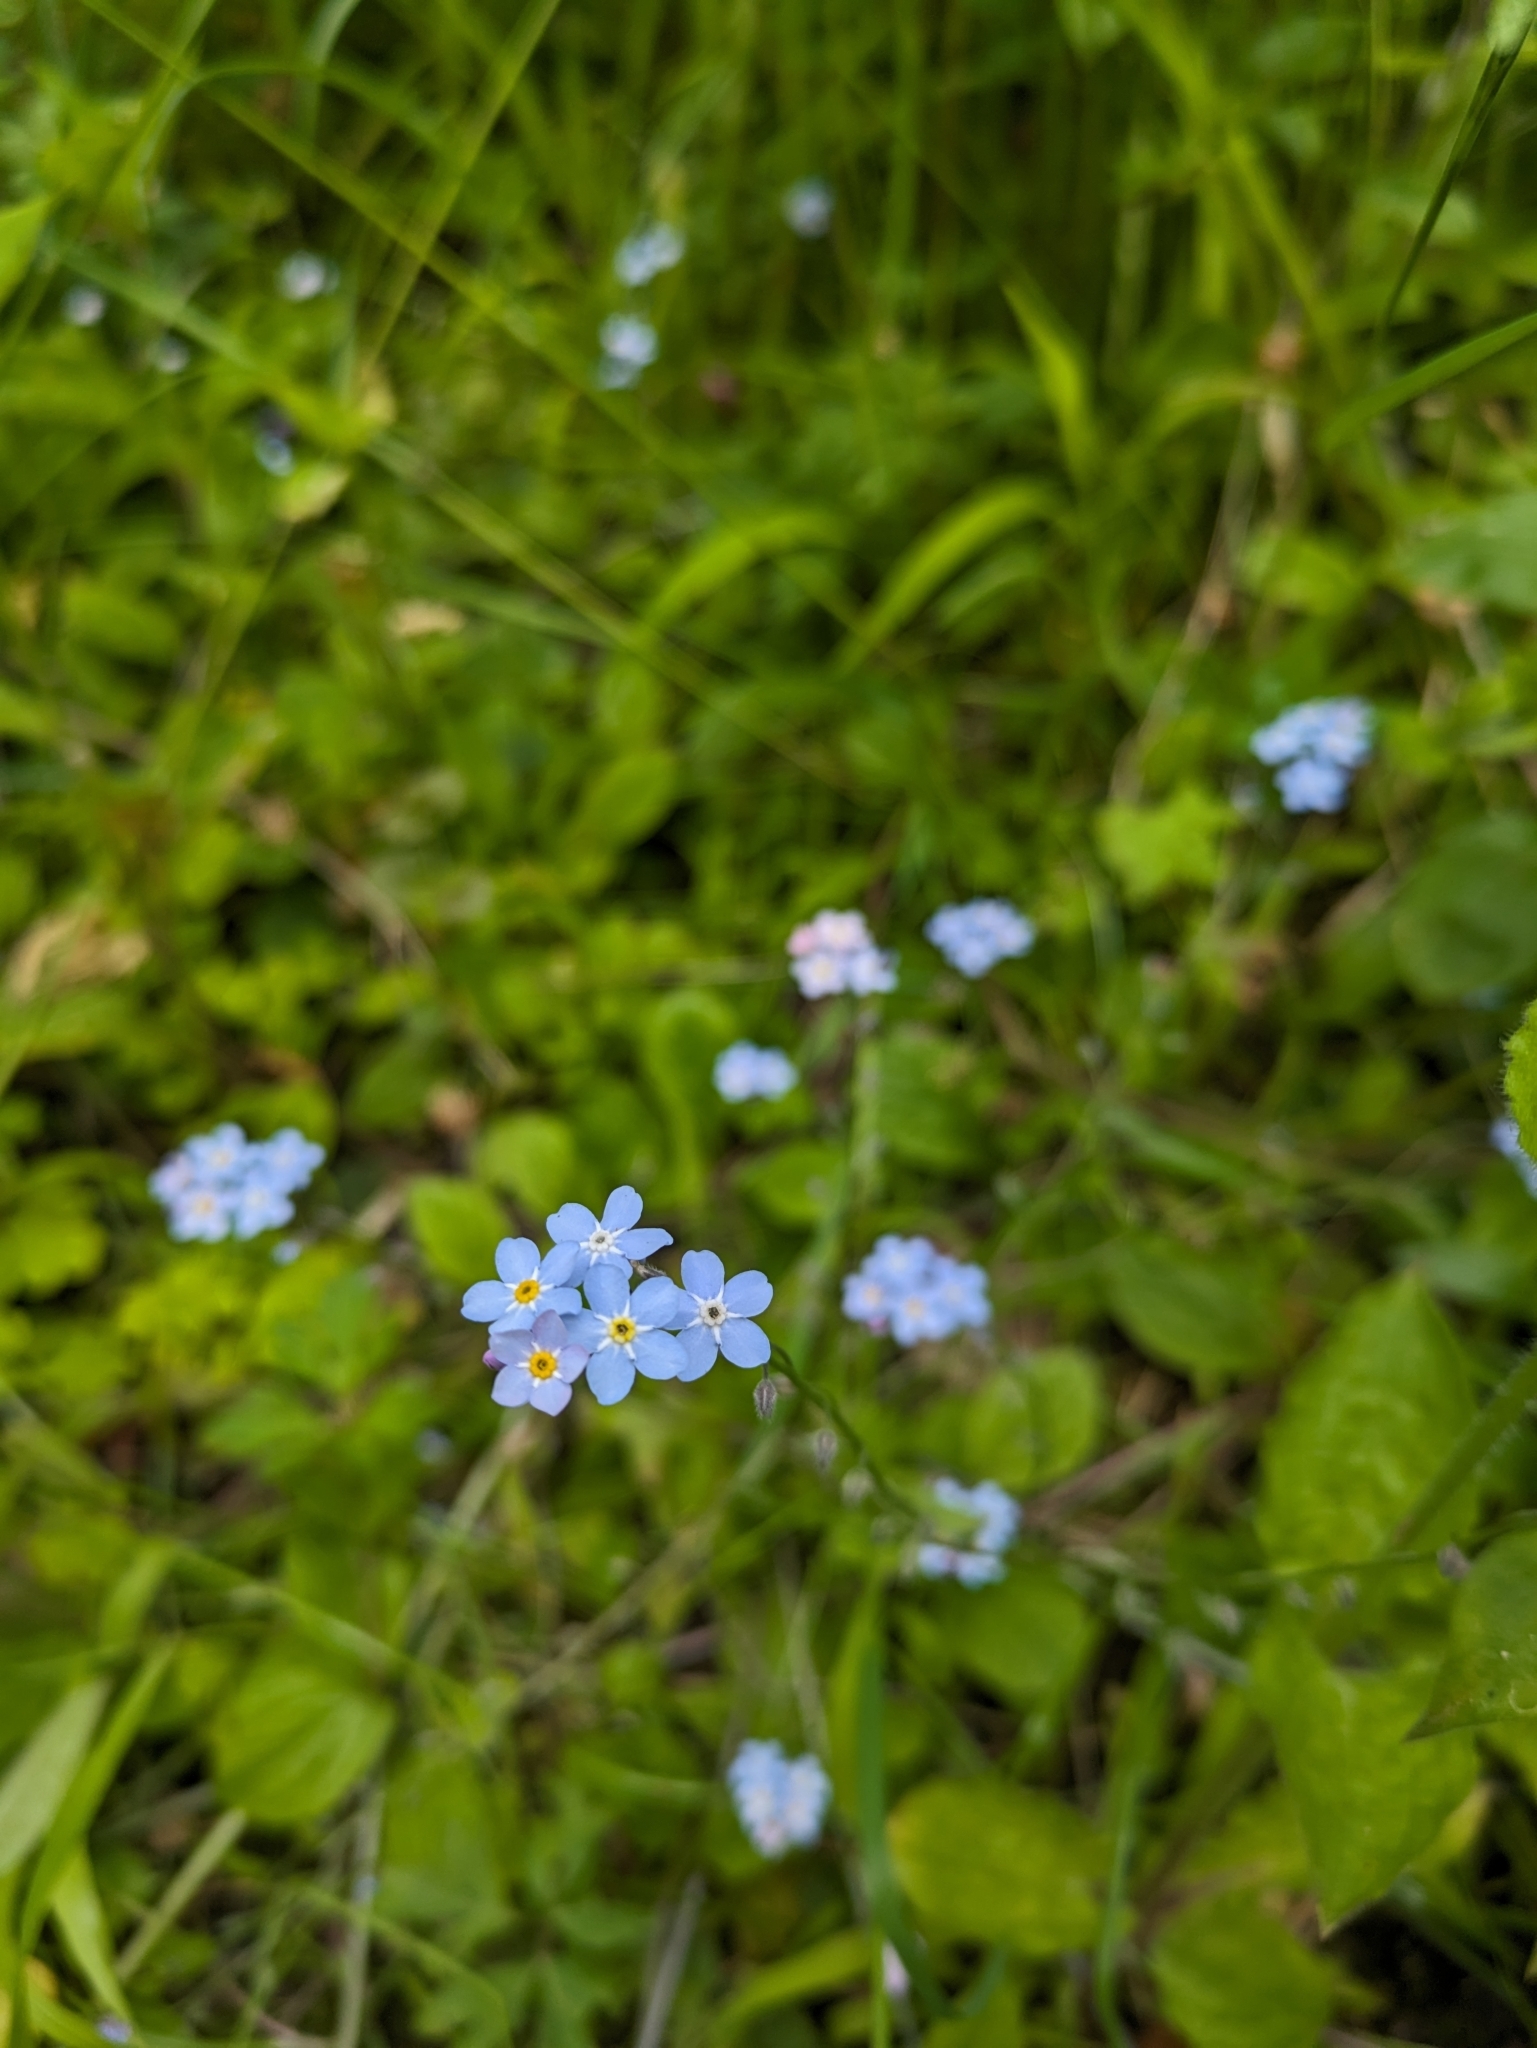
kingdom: Plantae
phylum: Tracheophyta
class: Magnoliopsida
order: Boraginales
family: Boraginaceae
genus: Myosotis
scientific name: Myosotis sylvatica
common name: Wood forget-me-not
